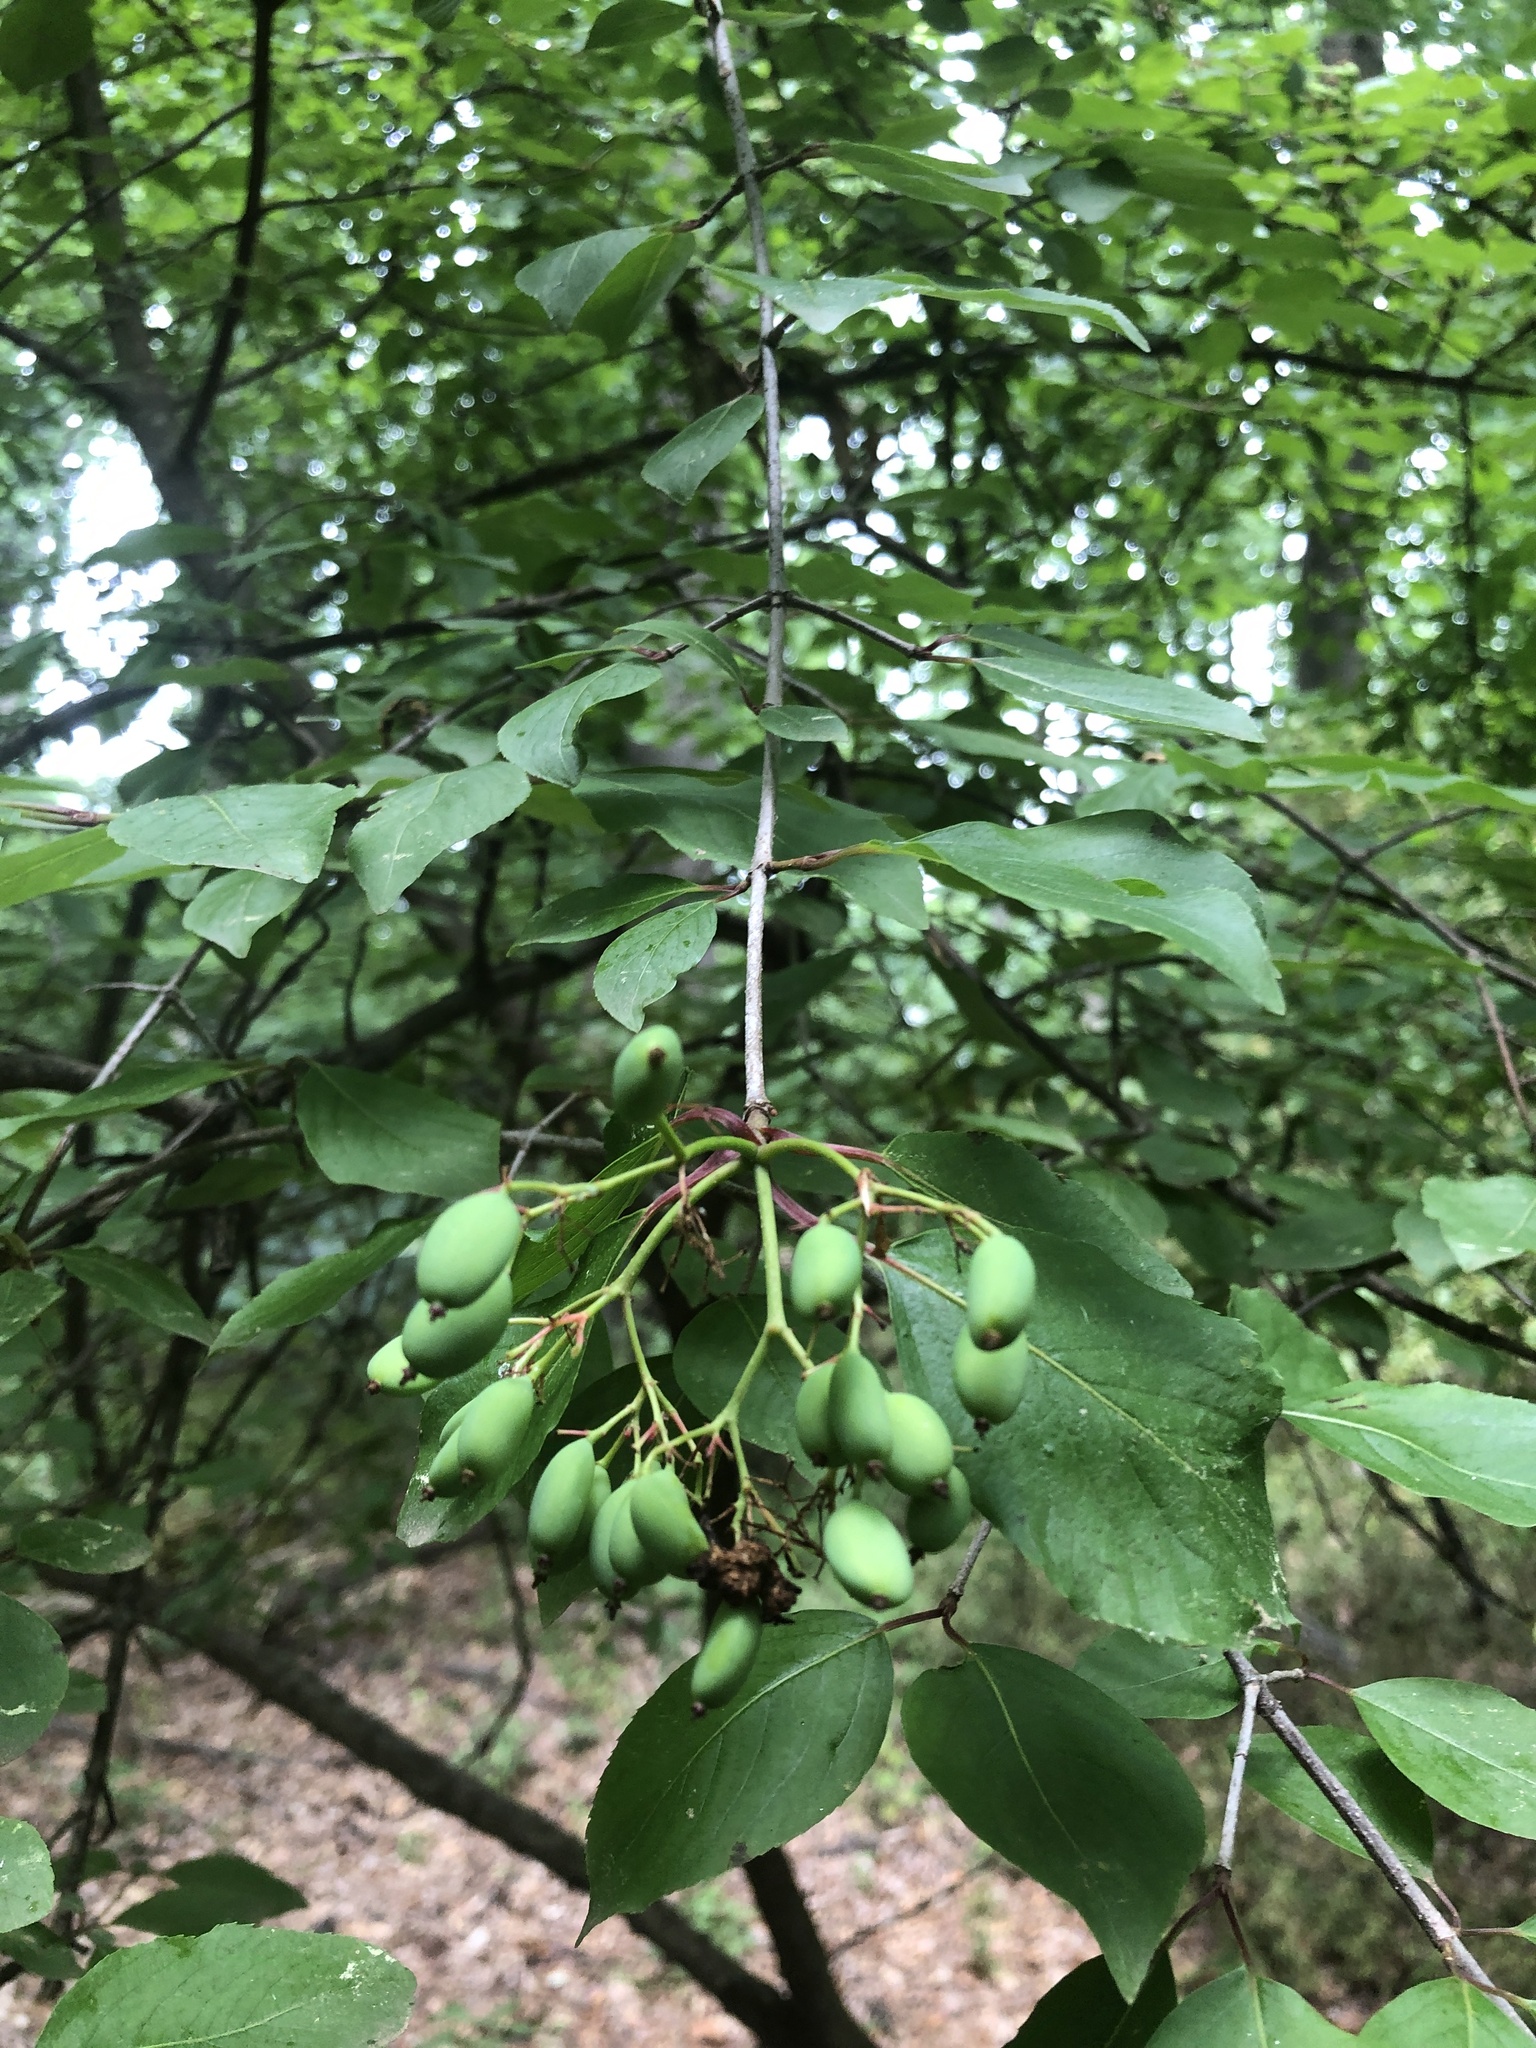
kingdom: Plantae
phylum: Tracheophyta
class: Magnoliopsida
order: Dipsacales
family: Viburnaceae
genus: Viburnum
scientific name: Viburnum prunifolium
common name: Black haw
